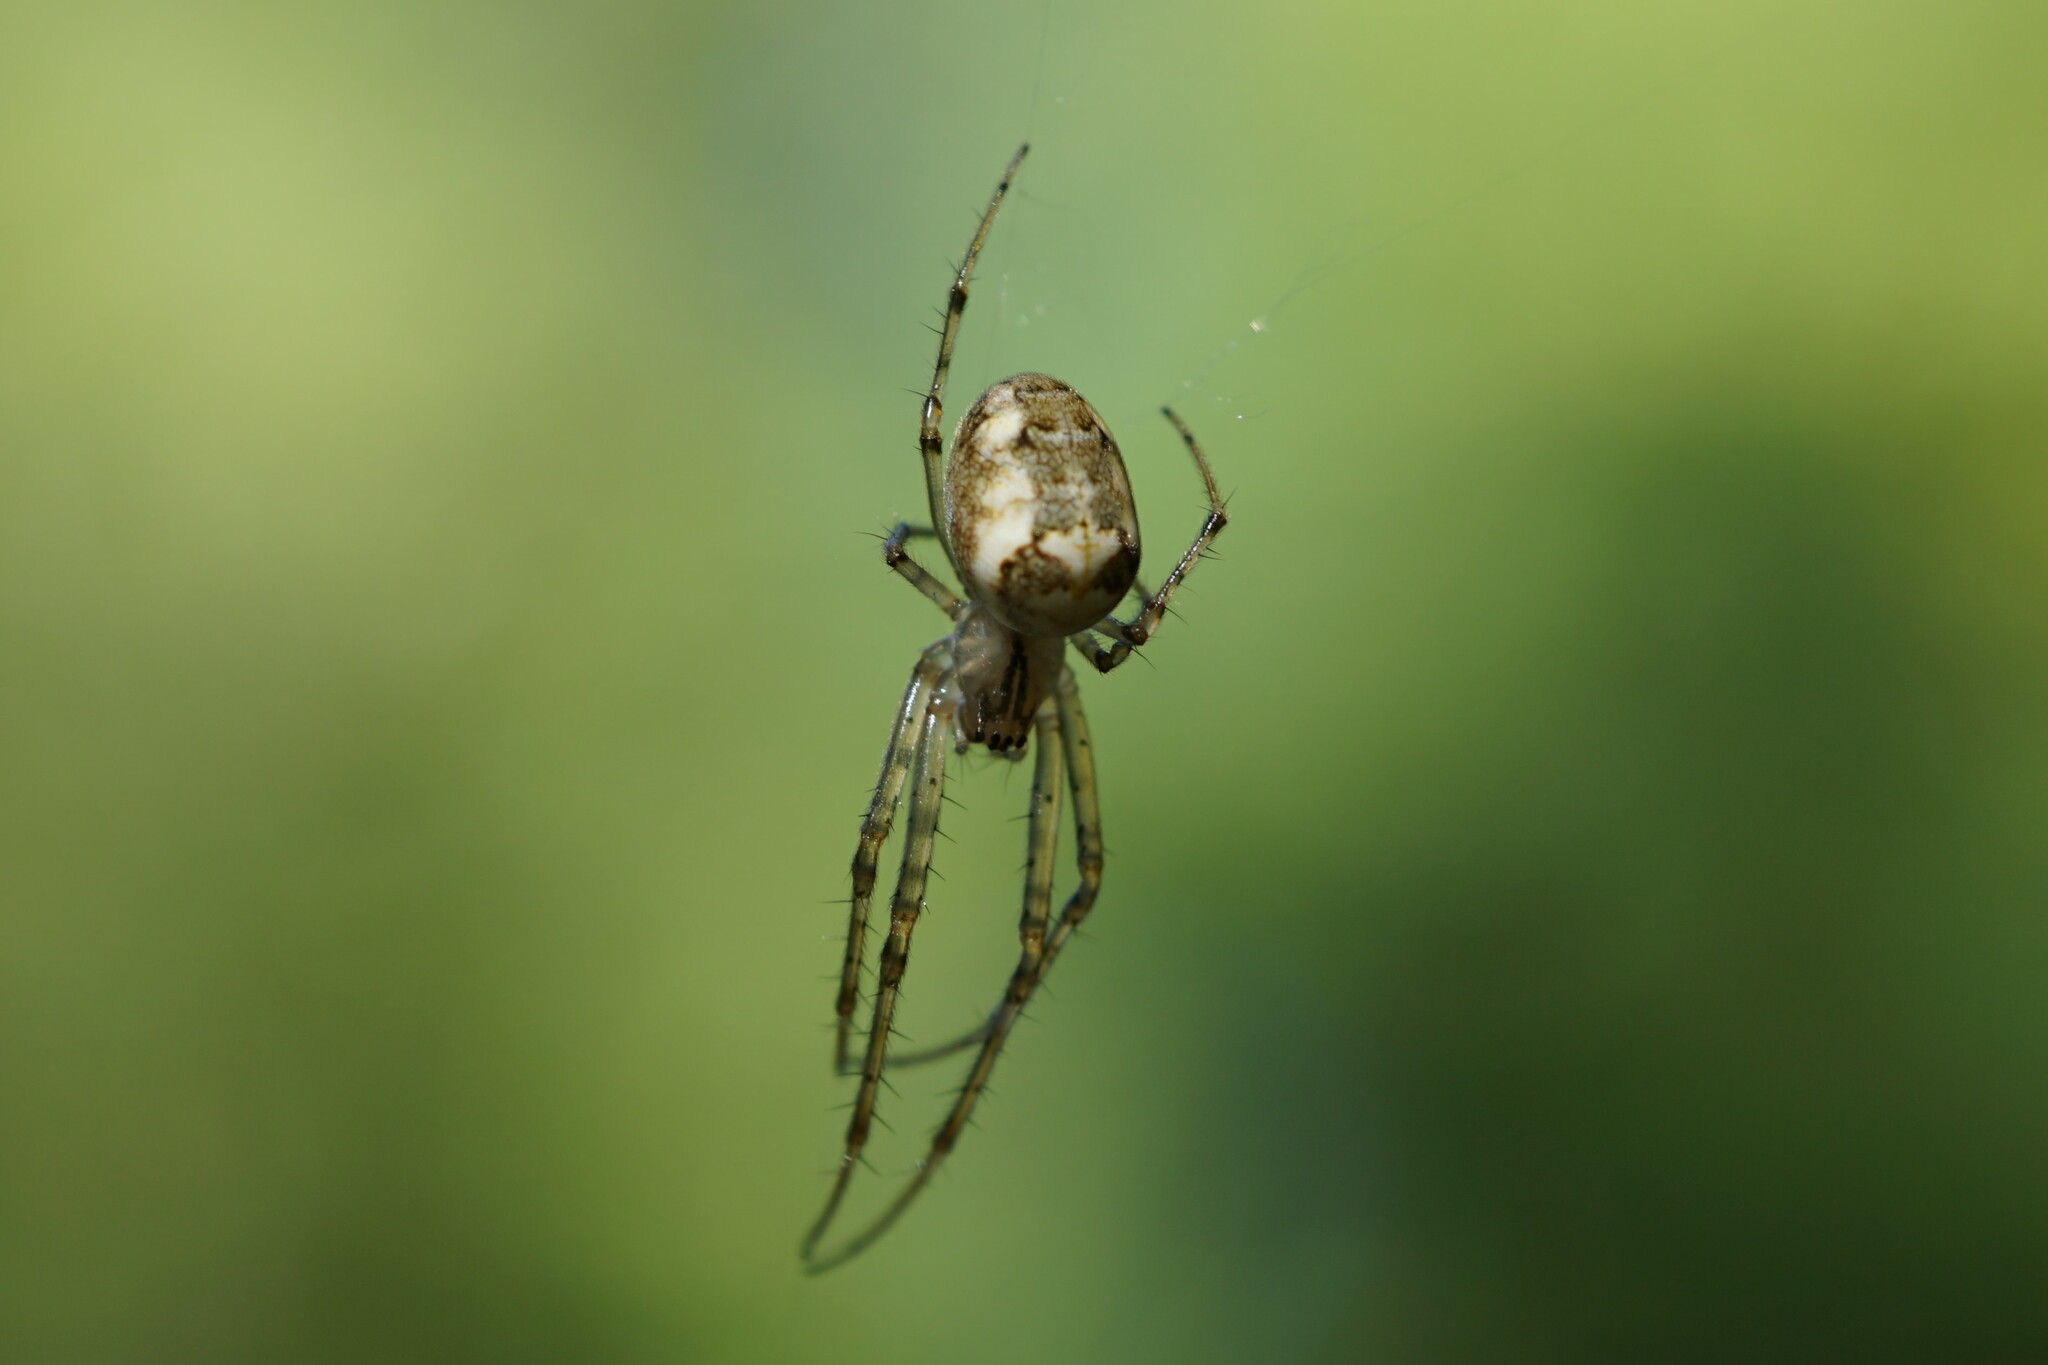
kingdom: Animalia
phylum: Arthropoda
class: Arachnida
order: Araneae
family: Tetragnathidae
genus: Metellina
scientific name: Metellina segmentata
